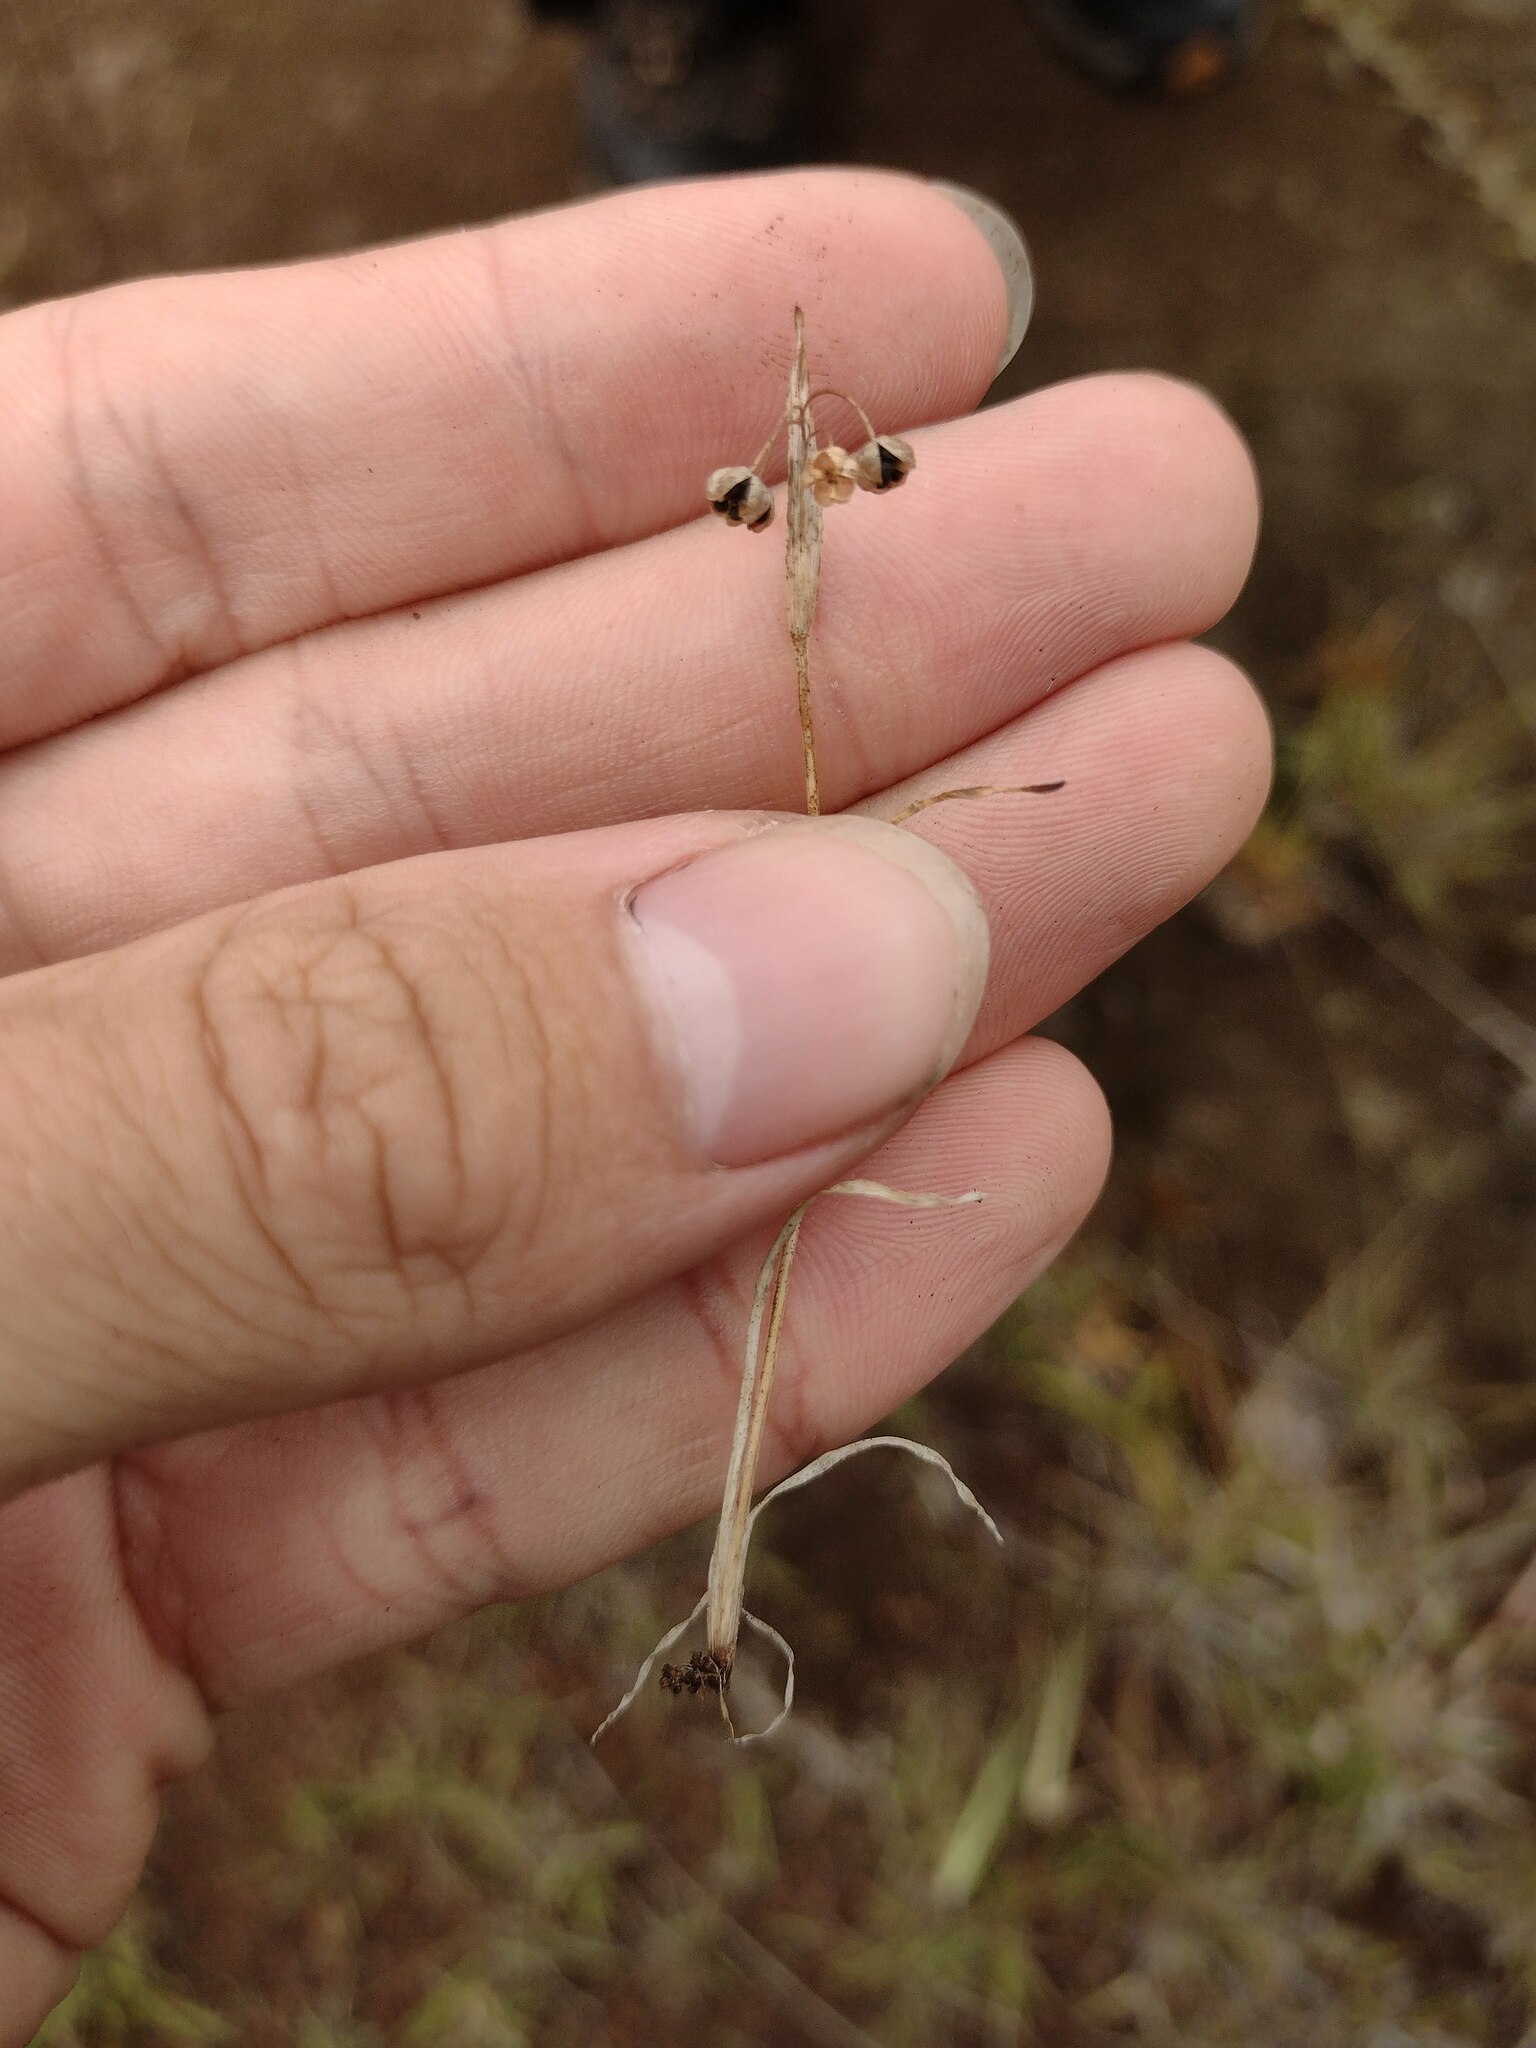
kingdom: Plantae
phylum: Tracheophyta
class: Liliopsida
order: Asparagales
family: Iridaceae
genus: Sisyrinchium
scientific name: Sisyrinchium micranthum
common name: Bermuda pigroot
